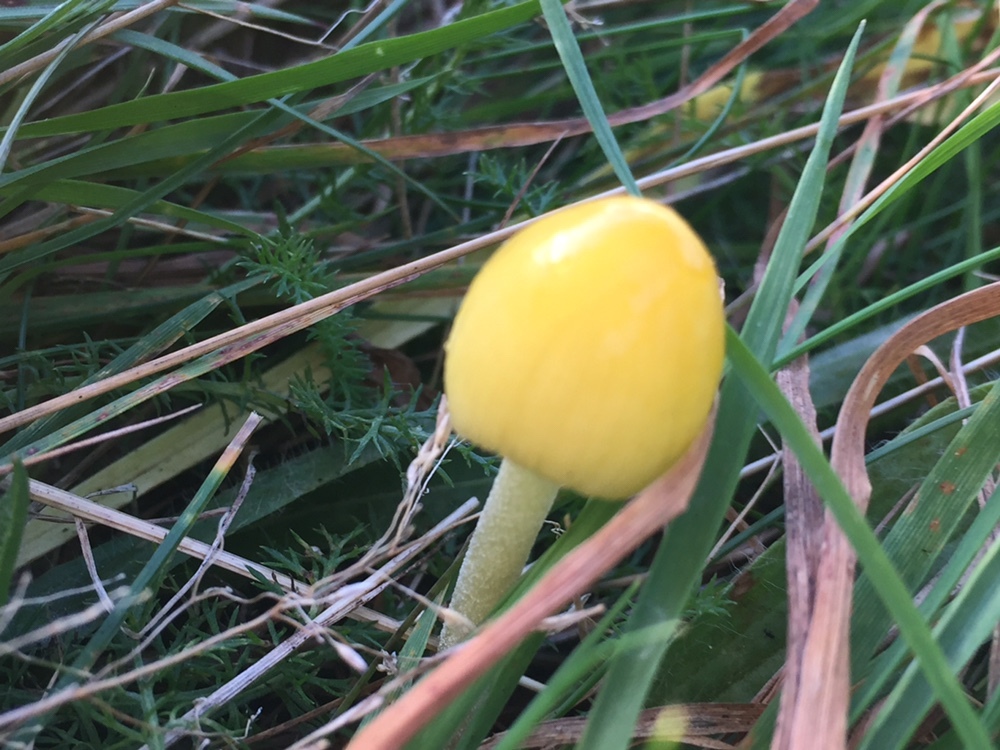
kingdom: Fungi
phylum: Basidiomycota
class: Agaricomycetes
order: Agaricales
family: Bolbitiaceae
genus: Bolbitius
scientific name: Bolbitius titubans
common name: Yellow fieldcap
